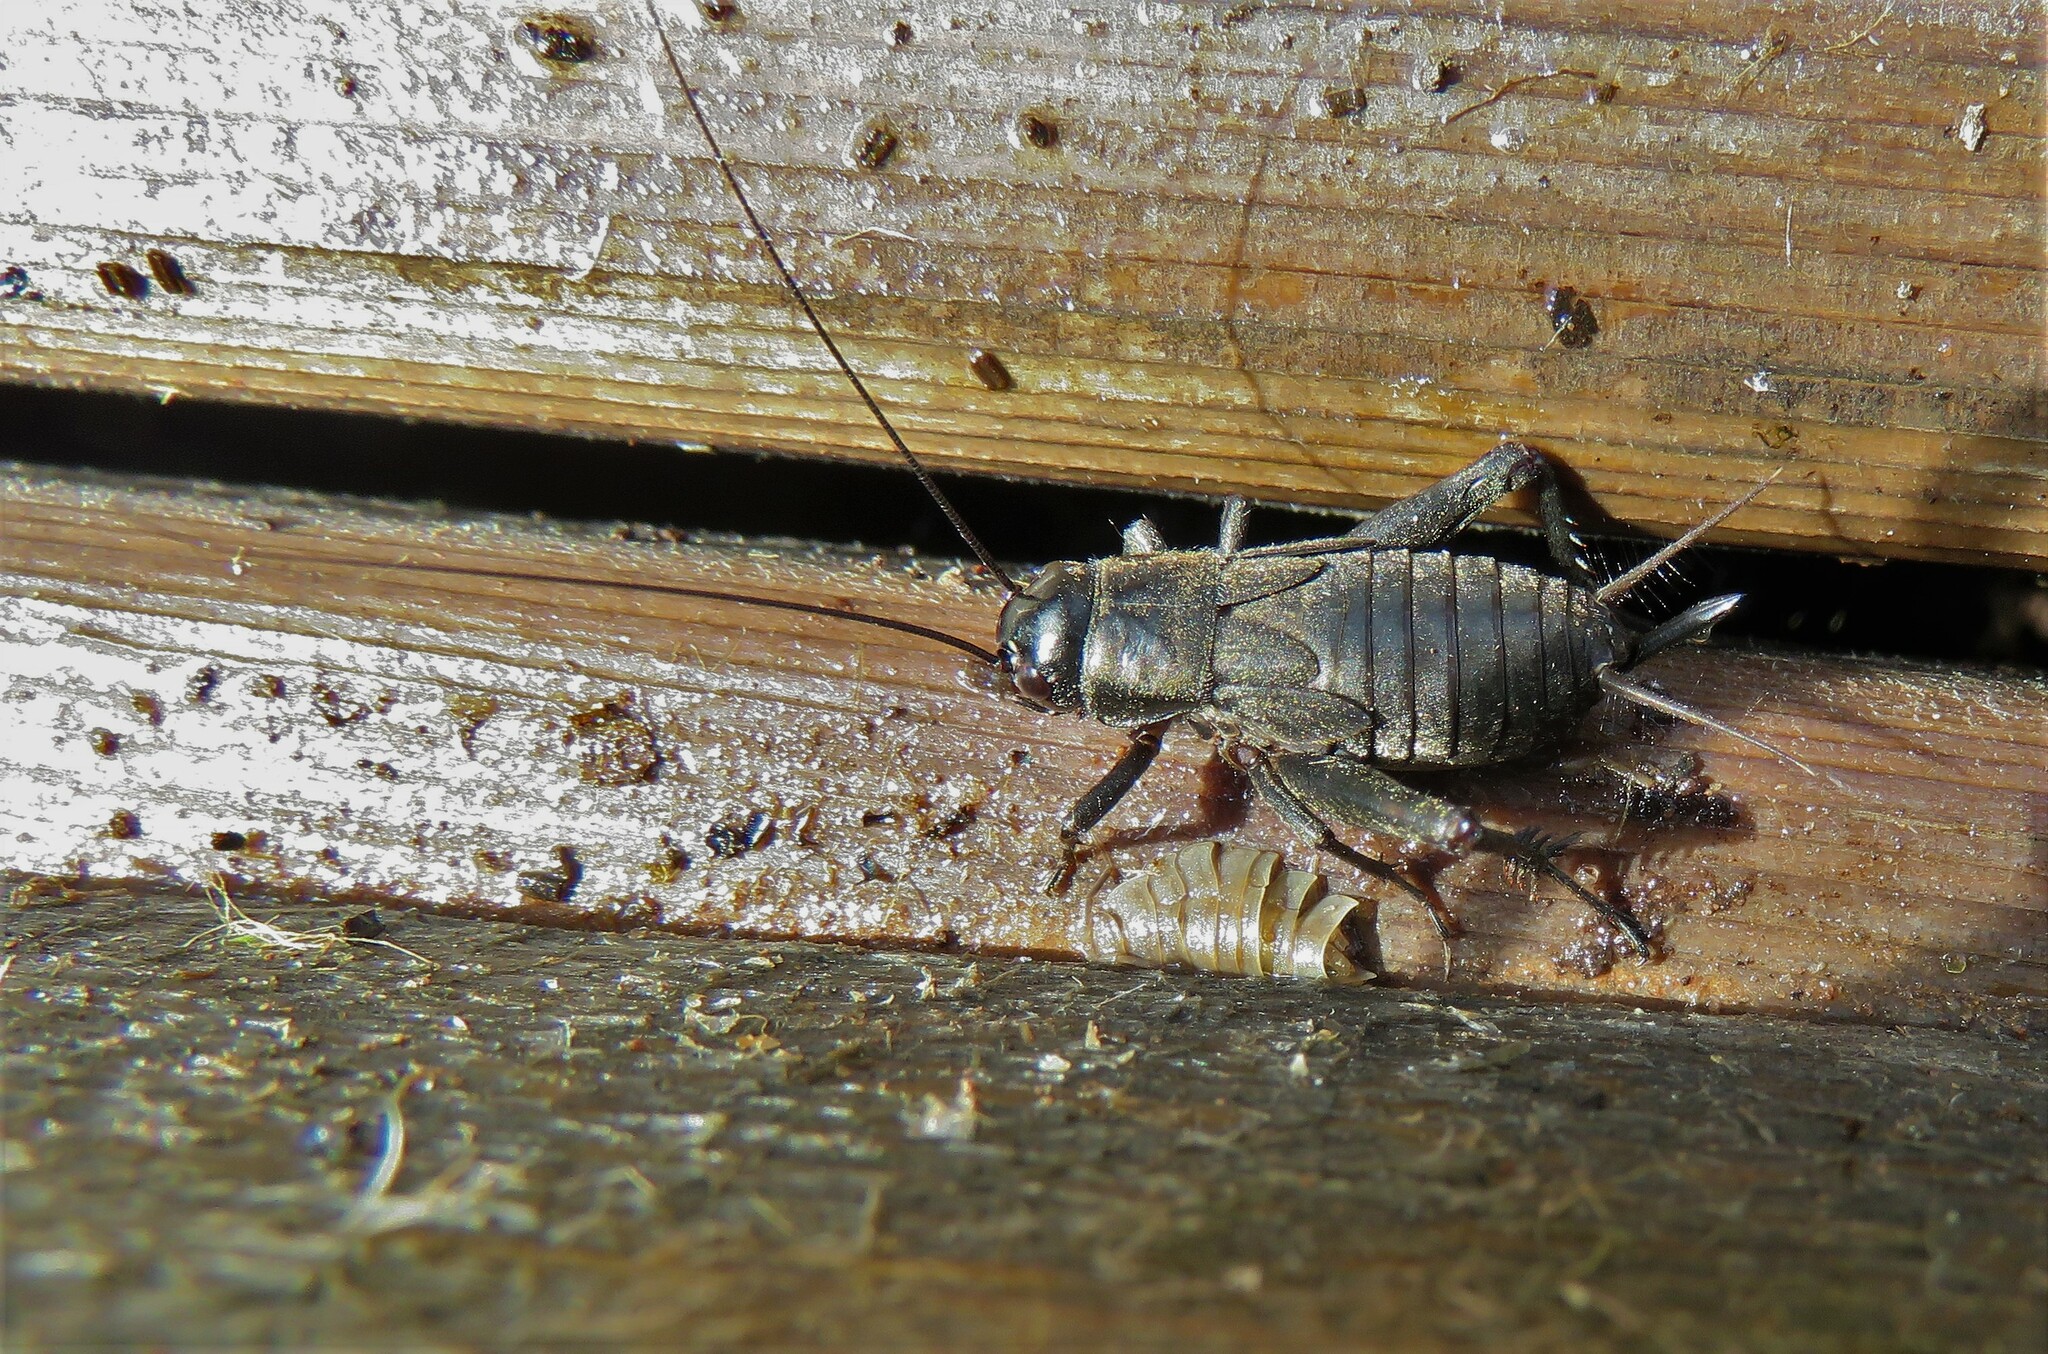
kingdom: Animalia
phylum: Arthropoda
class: Insecta
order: Orthoptera
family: Gryllidae
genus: Gryllus
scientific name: Gryllus pennsylvanicus
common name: Fall field cricket
